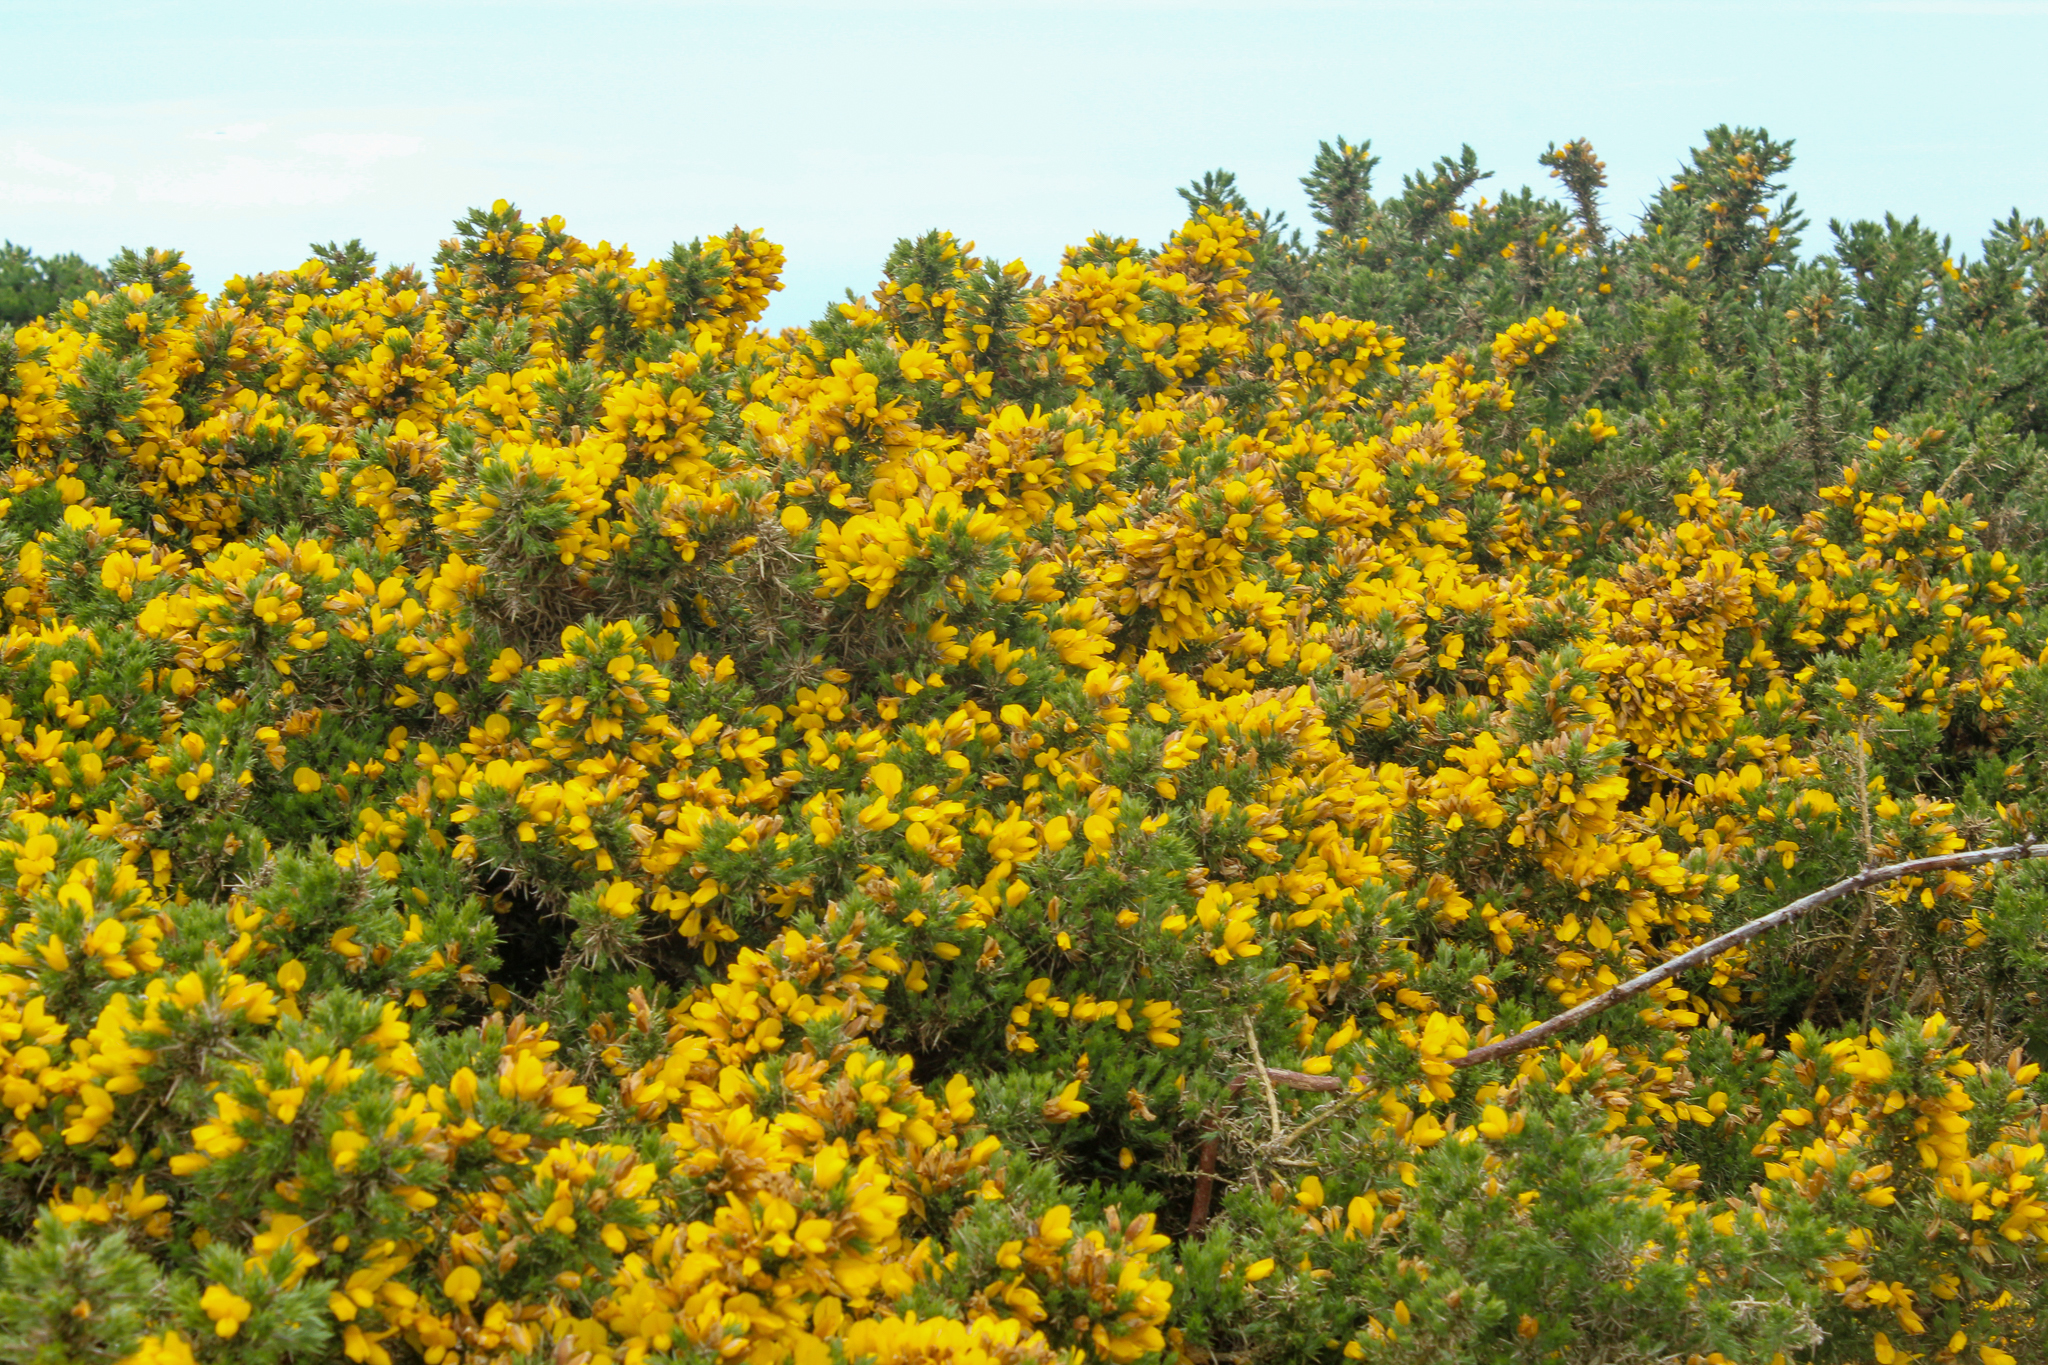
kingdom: Plantae
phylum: Tracheophyta
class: Magnoliopsida
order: Fabales
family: Fabaceae
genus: Ulex
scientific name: Ulex europaeus
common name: Common gorse
